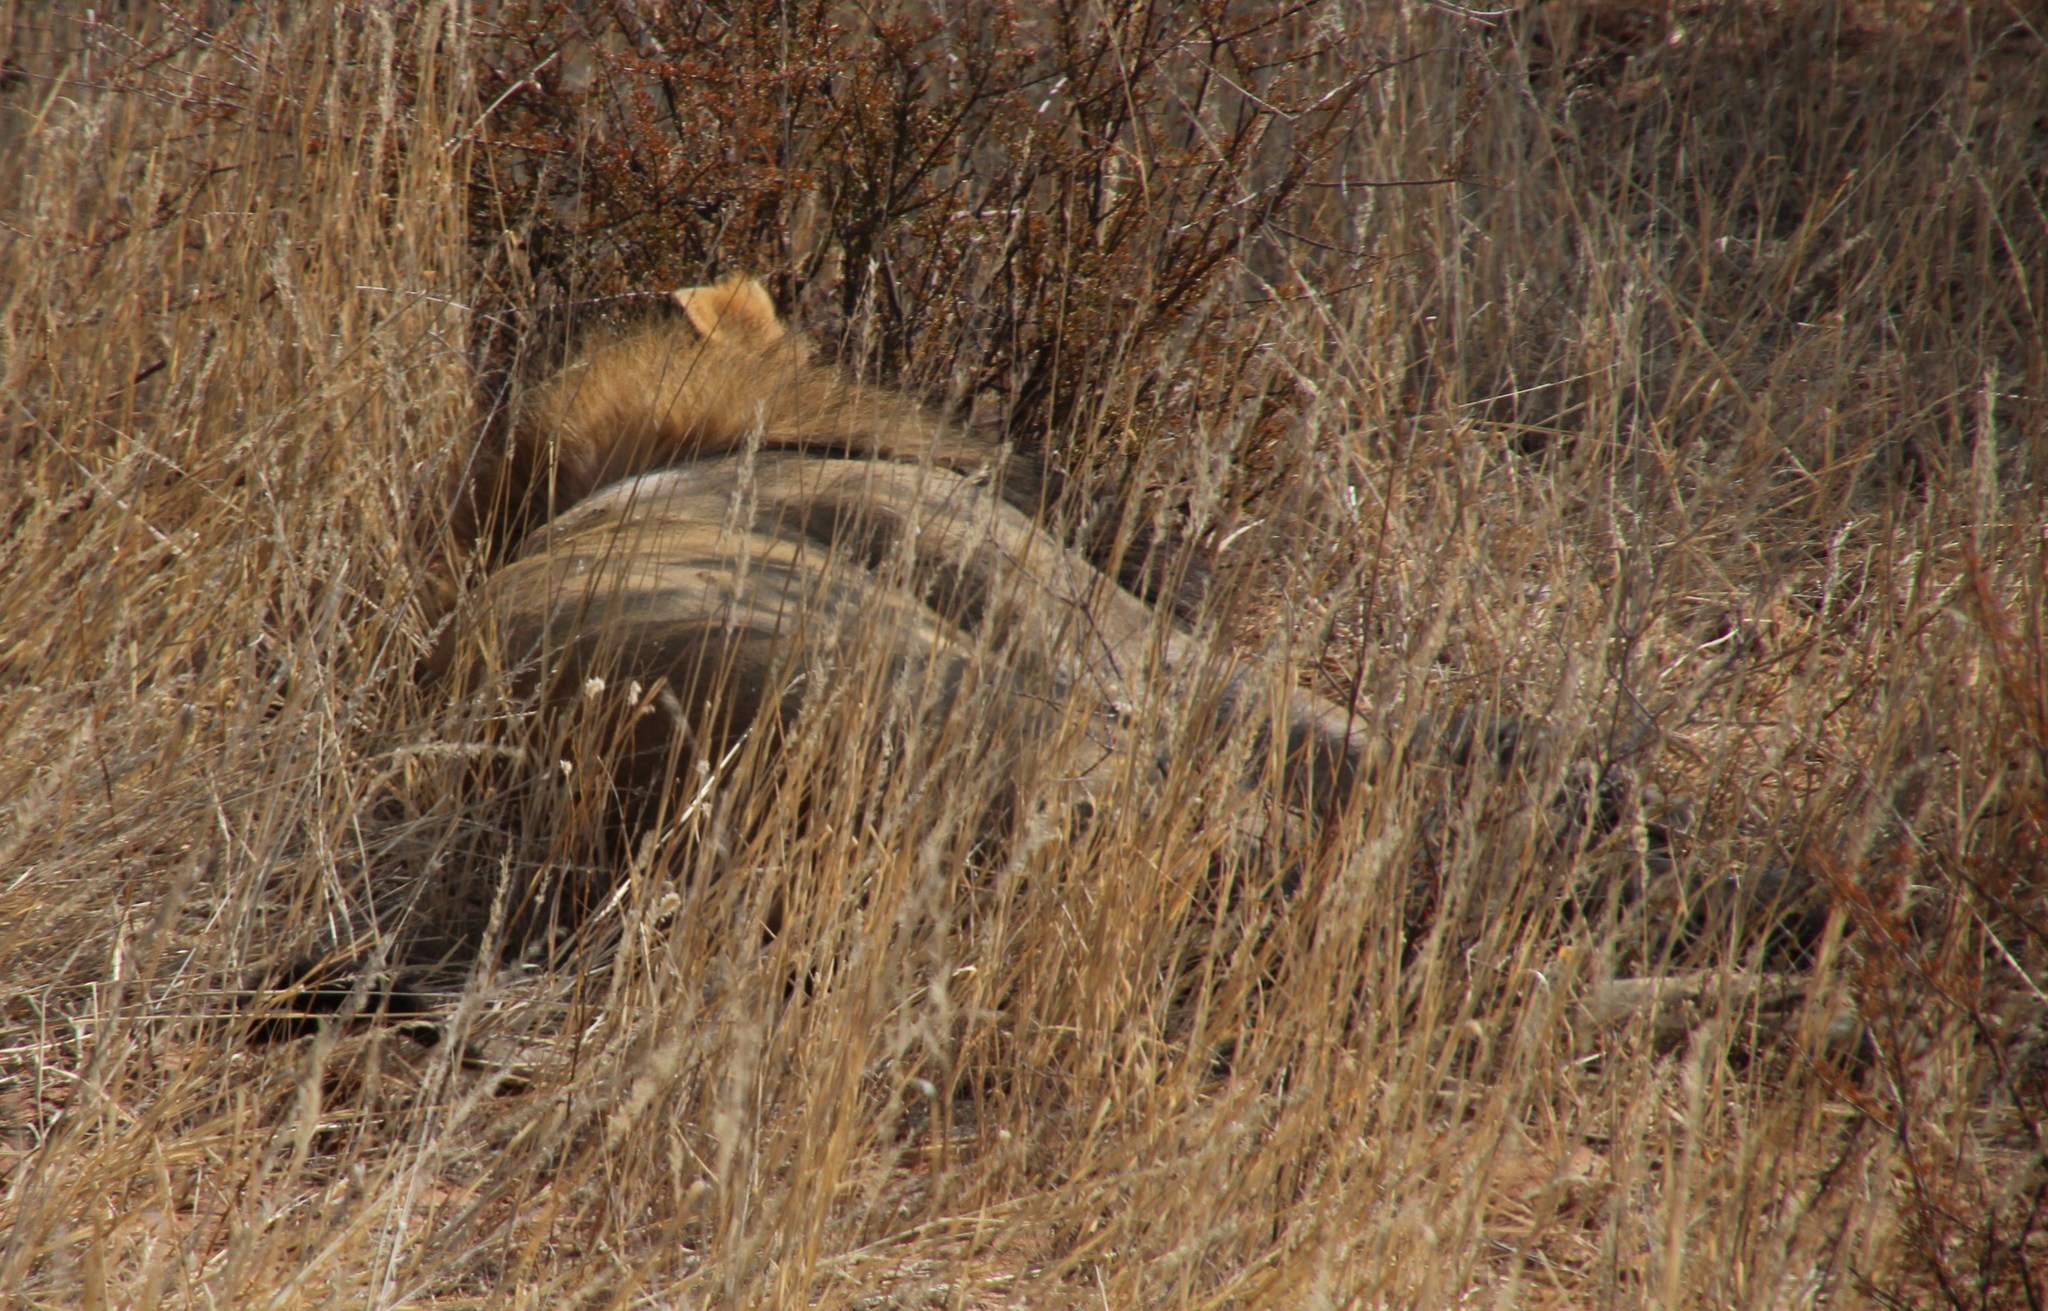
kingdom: Animalia
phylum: Chordata
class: Mammalia
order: Carnivora
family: Felidae
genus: Panthera
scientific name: Panthera leo
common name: Lion
